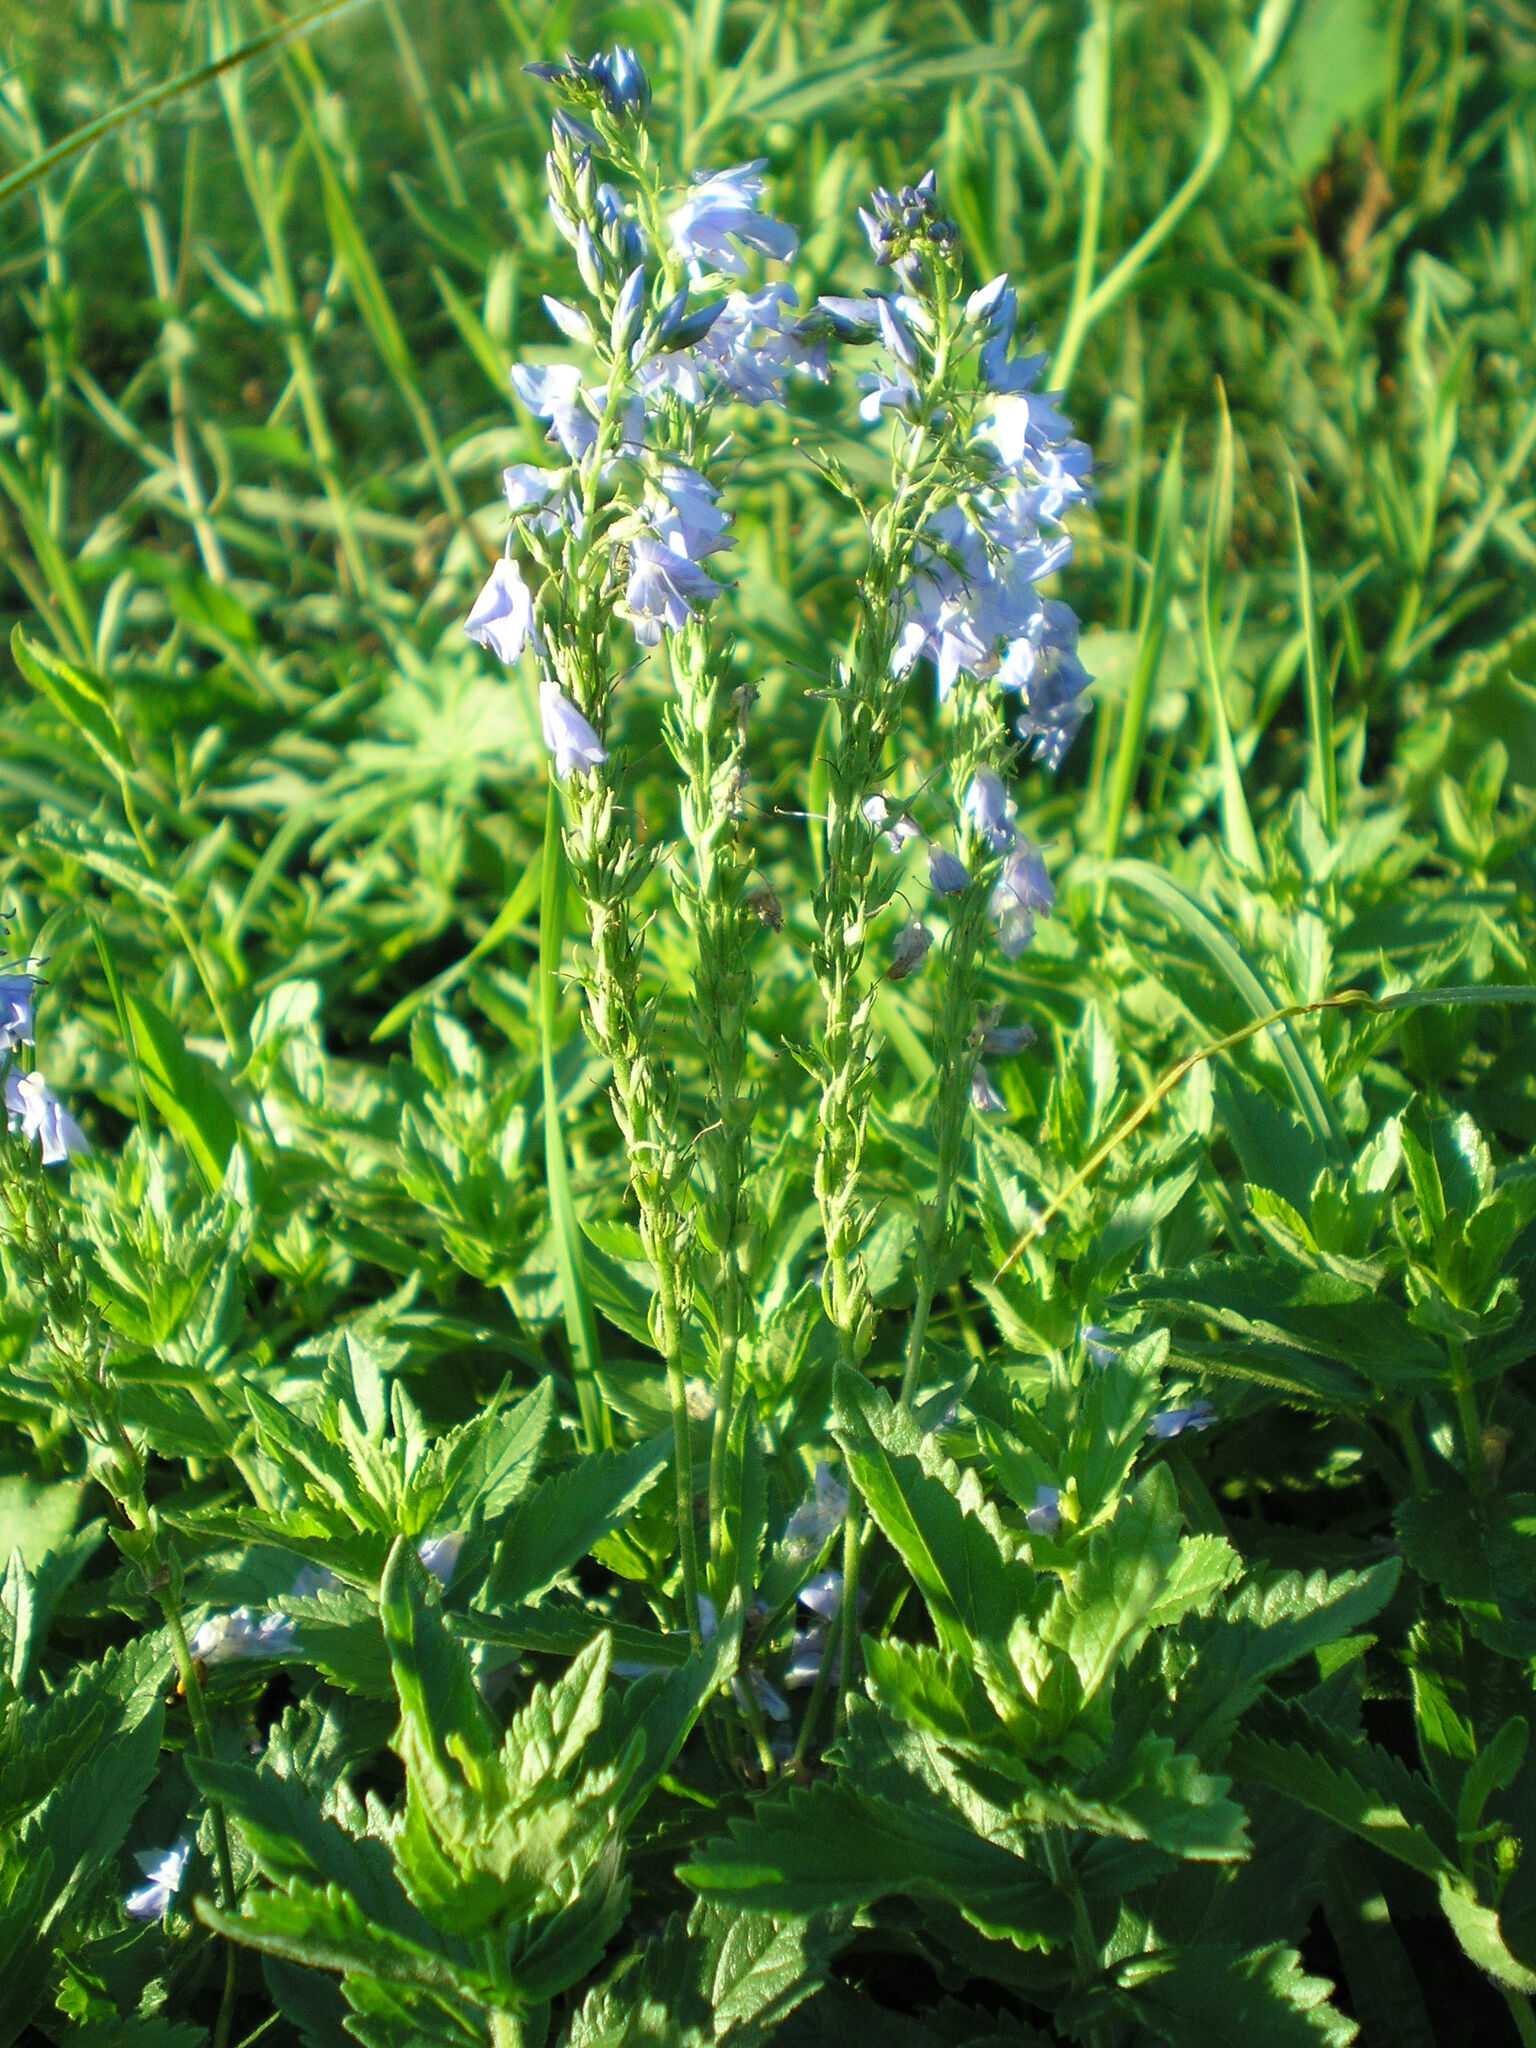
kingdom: Plantae
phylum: Tracheophyta
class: Magnoliopsida
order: Lamiales
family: Plantaginaceae
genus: Veronica
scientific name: Veronica teucrium
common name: Large speedwell
